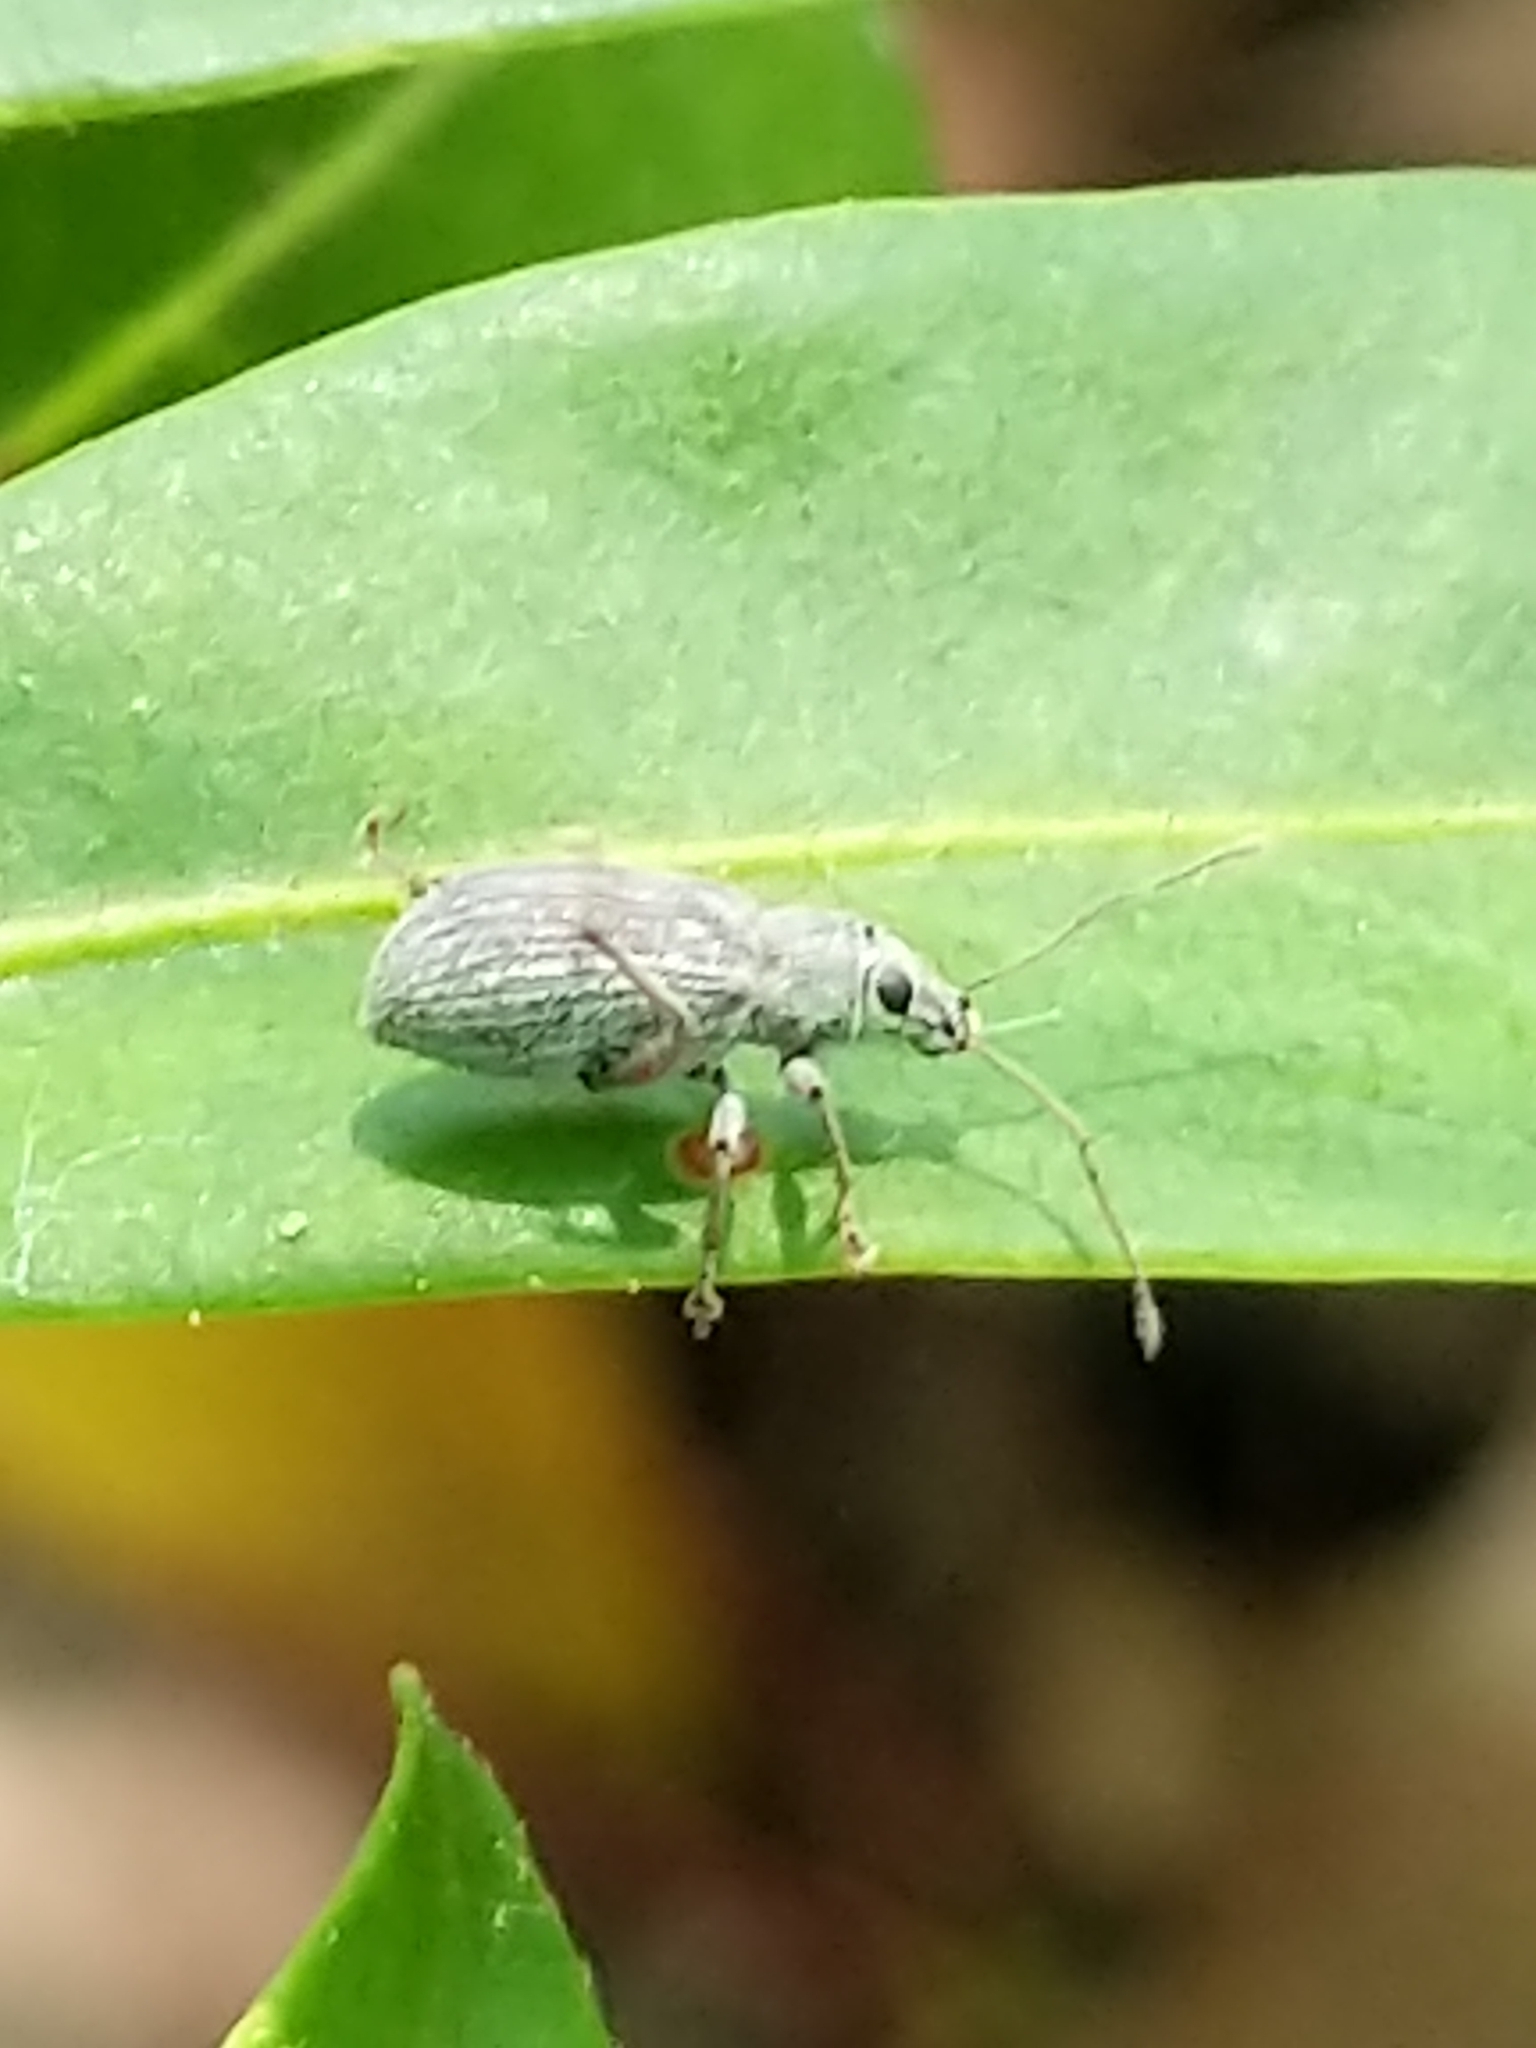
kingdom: Animalia
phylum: Arthropoda
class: Insecta
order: Coleoptera
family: Curculionidae
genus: Cyrtepistomus
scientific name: Cyrtepistomus castaneus
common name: Weevil
